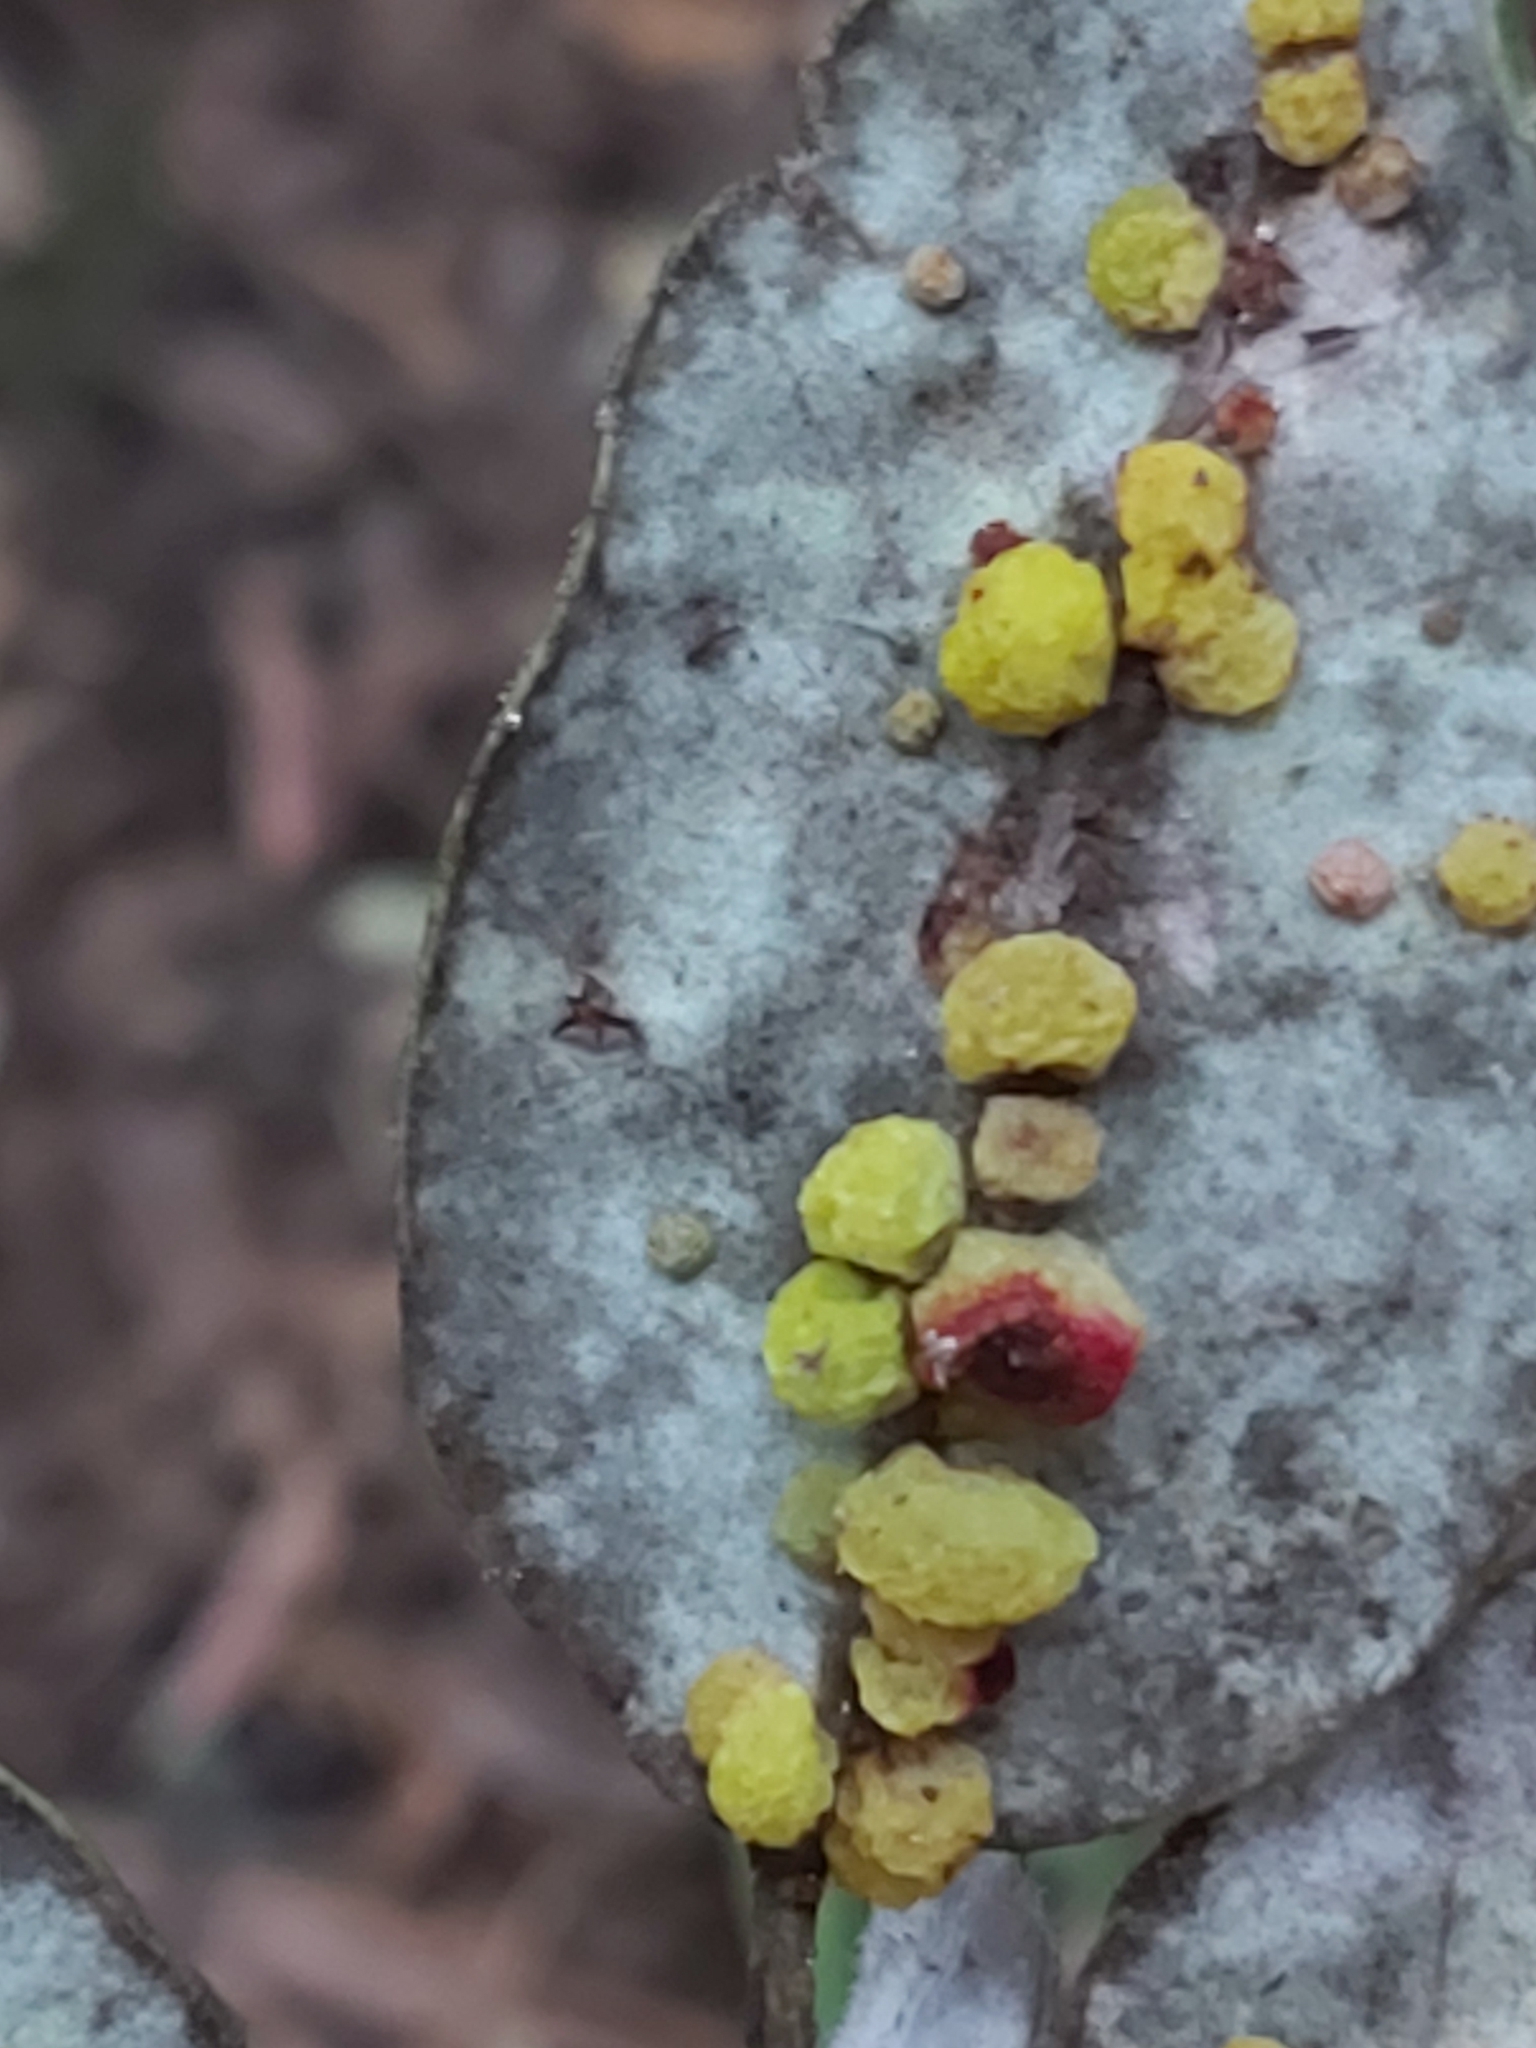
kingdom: Plantae
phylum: Tracheophyta
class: Magnoliopsida
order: Myrtales
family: Myrtaceae
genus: Syncarpia
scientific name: Syncarpia glomulifera
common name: Turpentine tree
